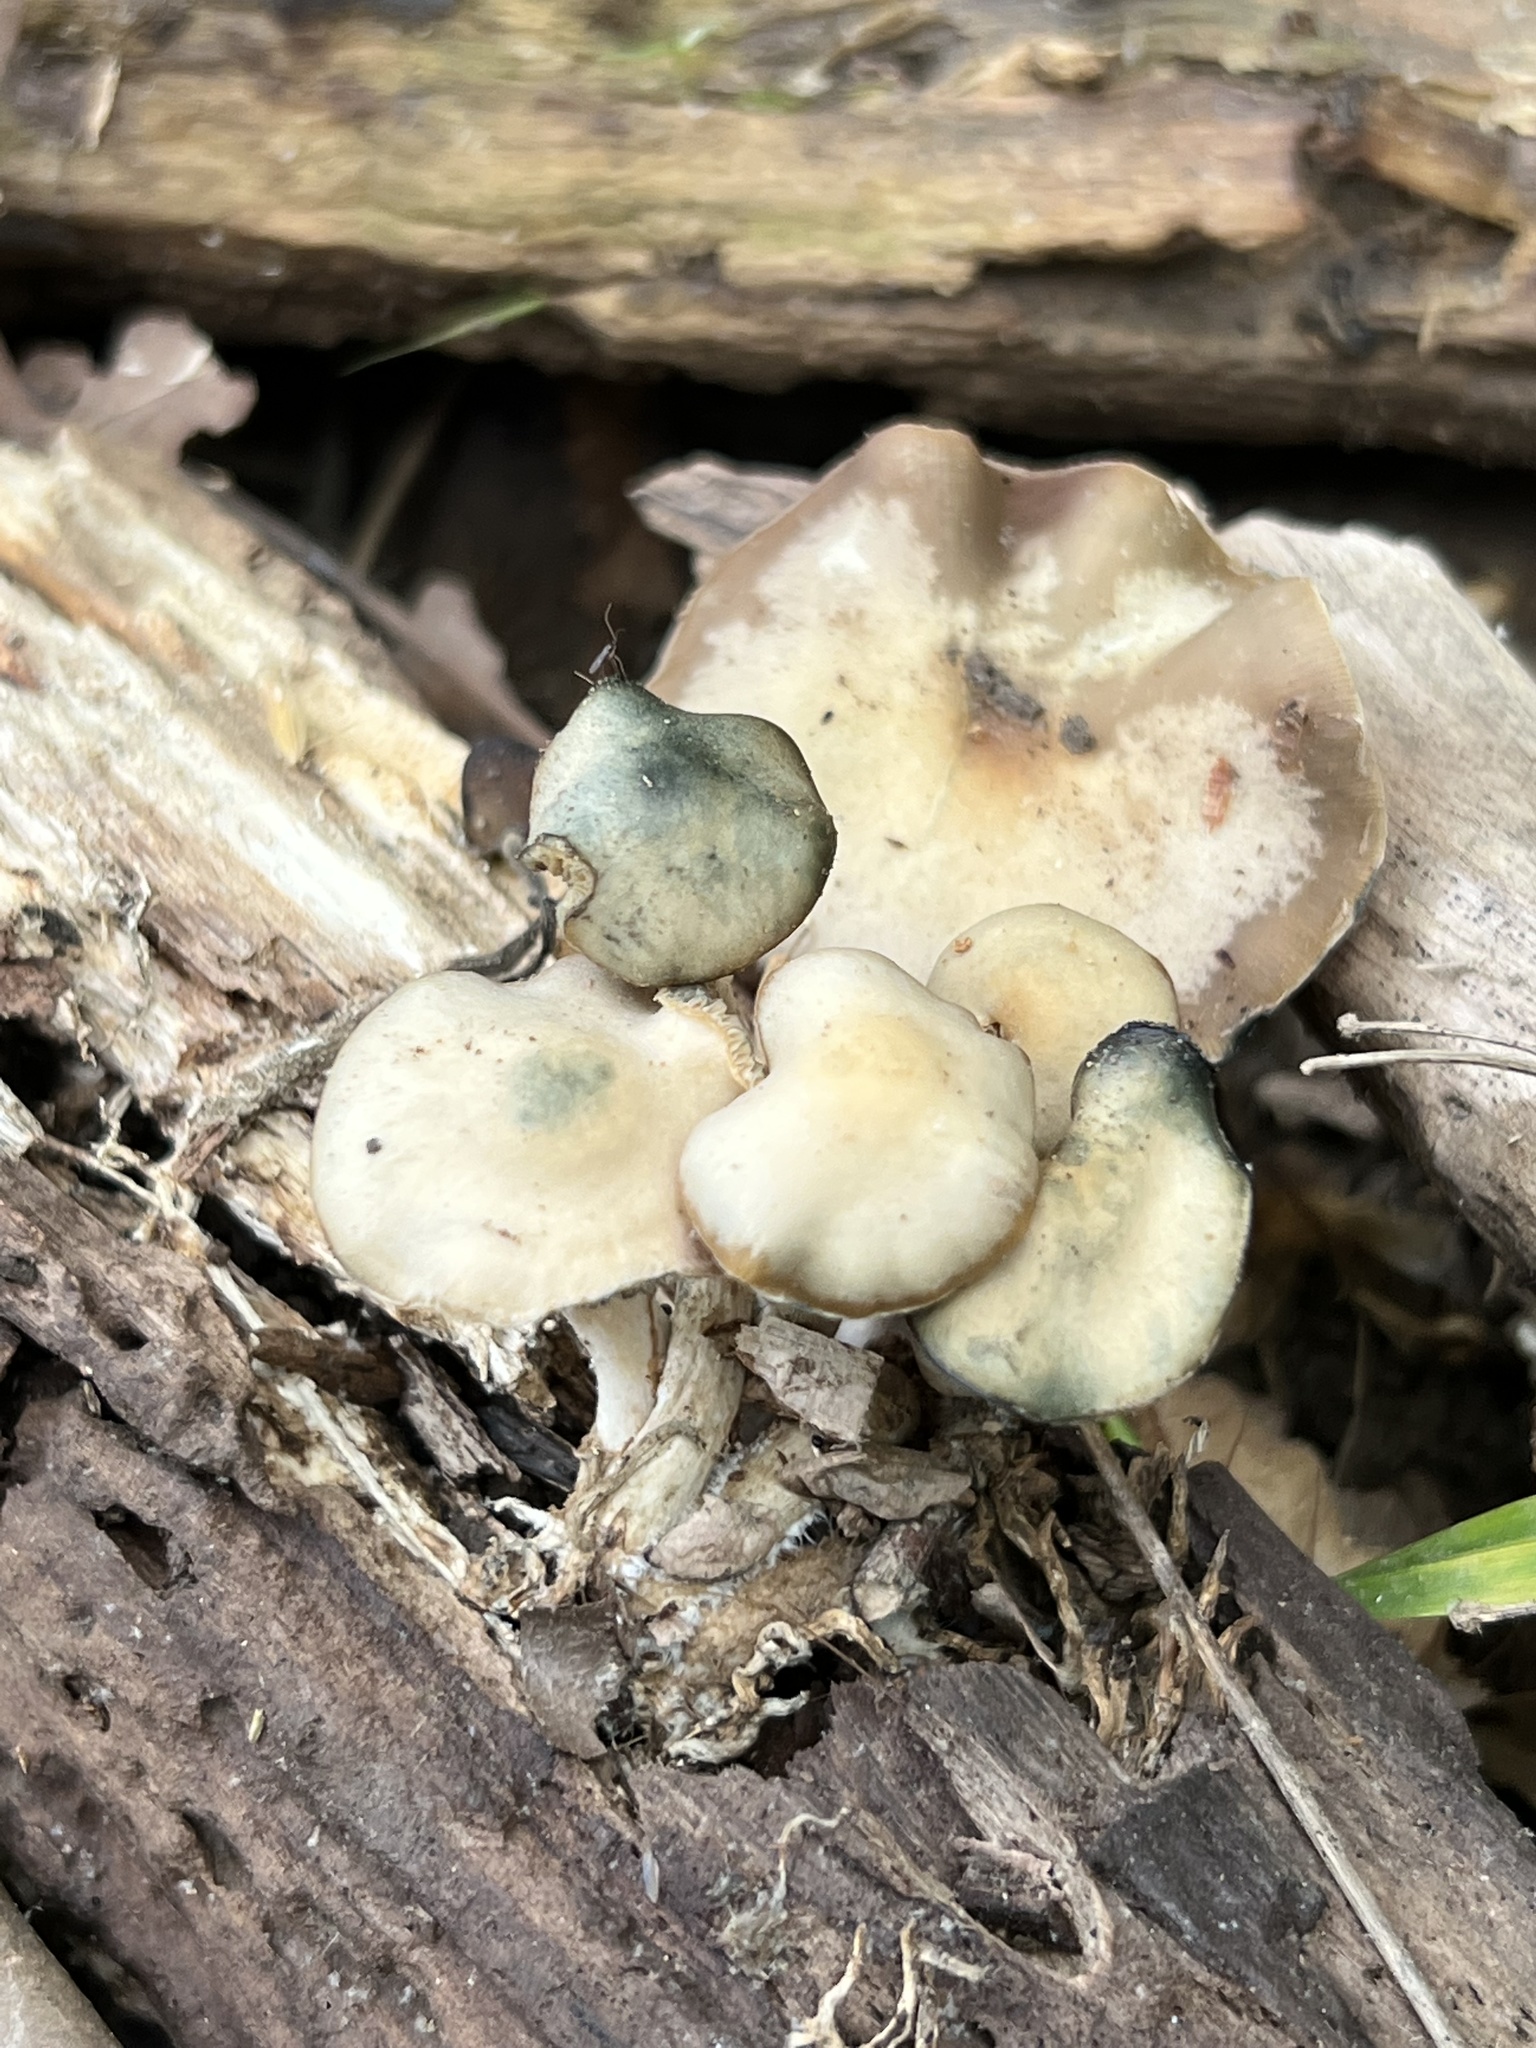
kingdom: Fungi
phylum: Basidiomycota
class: Agaricomycetes
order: Agaricales
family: Hymenogastraceae
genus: Psilocybe
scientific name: Psilocybe ovoideocystidiata
